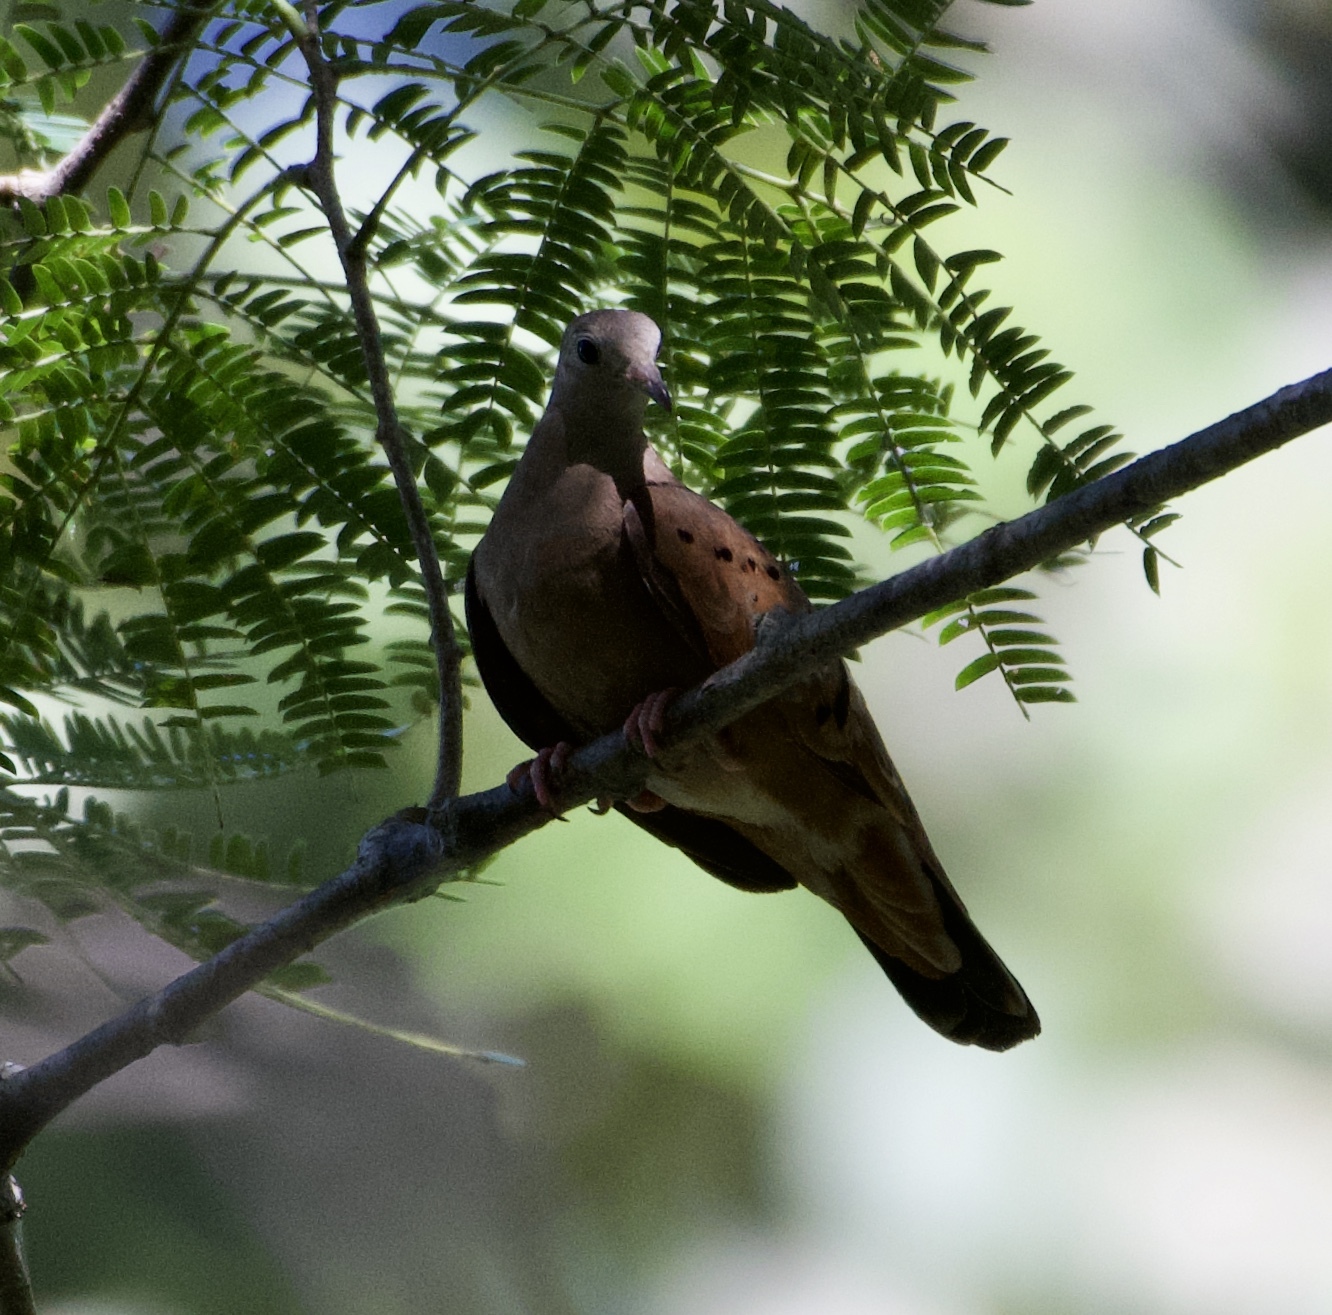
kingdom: Animalia
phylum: Chordata
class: Aves
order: Columbiformes
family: Columbidae
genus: Columbina
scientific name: Columbina talpacoti
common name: Ruddy ground dove
